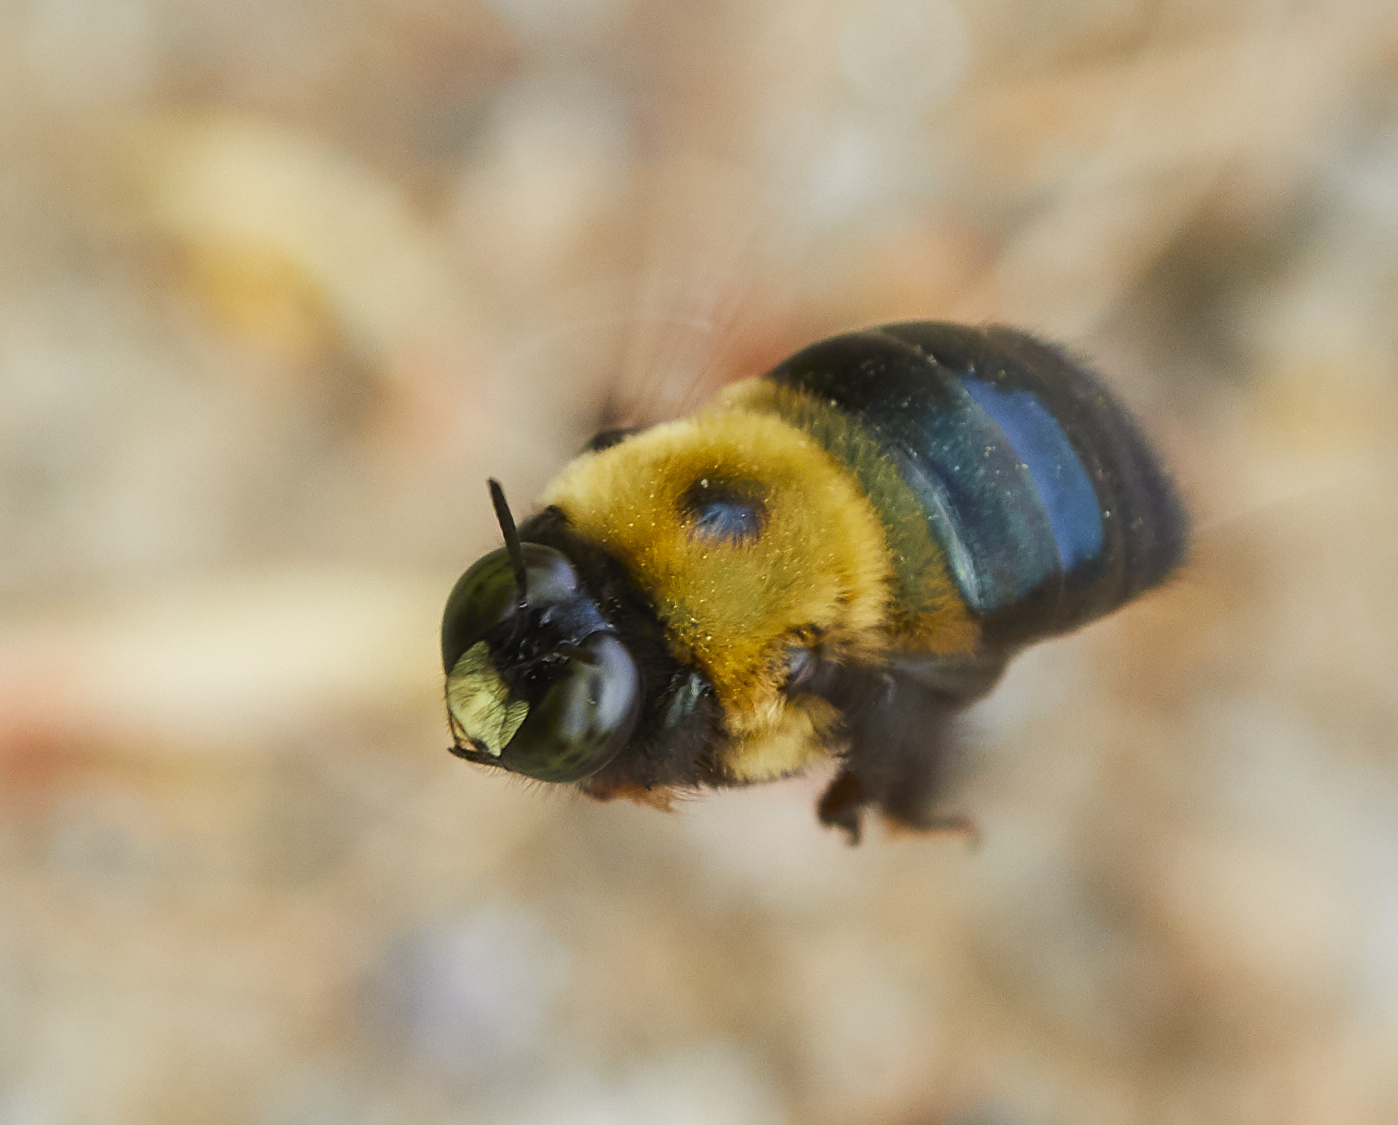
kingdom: Animalia
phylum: Arthropoda
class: Insecta
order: Hymenoptera
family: Apidae
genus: Xylocopa
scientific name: Xylocopa virginica
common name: Carpenter bee
